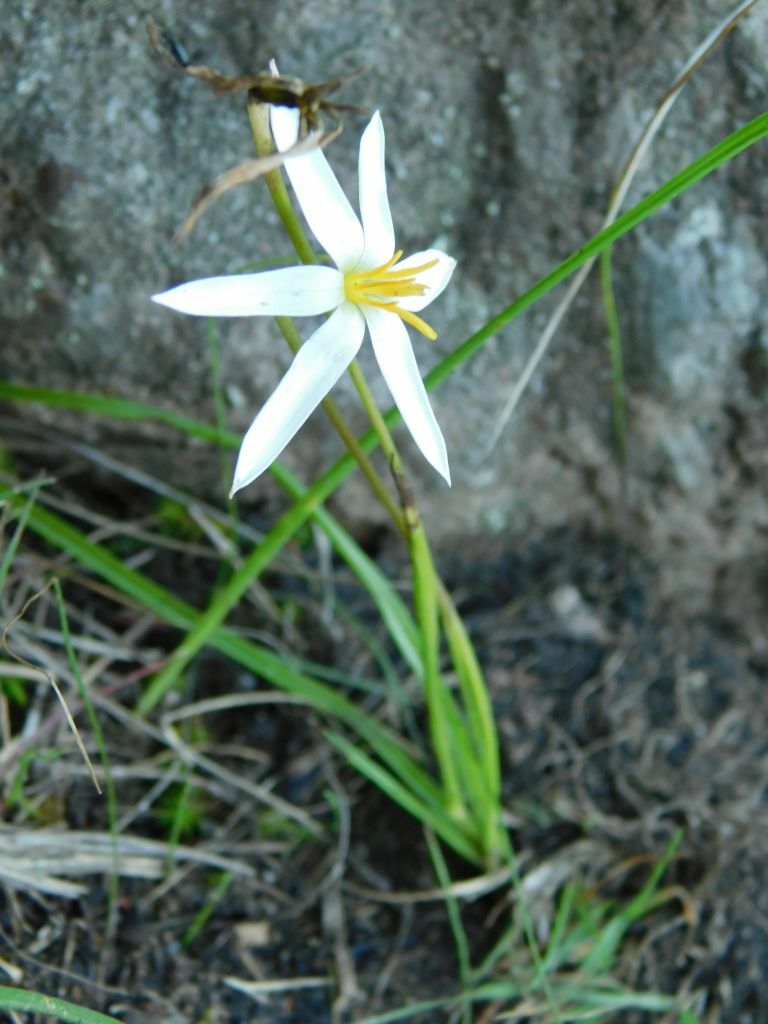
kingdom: Plantae
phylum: Tracheophyta
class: Liliopsida
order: Asparagales
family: Hypoxidaceae
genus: Pauridia
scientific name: Pauridia capensis
